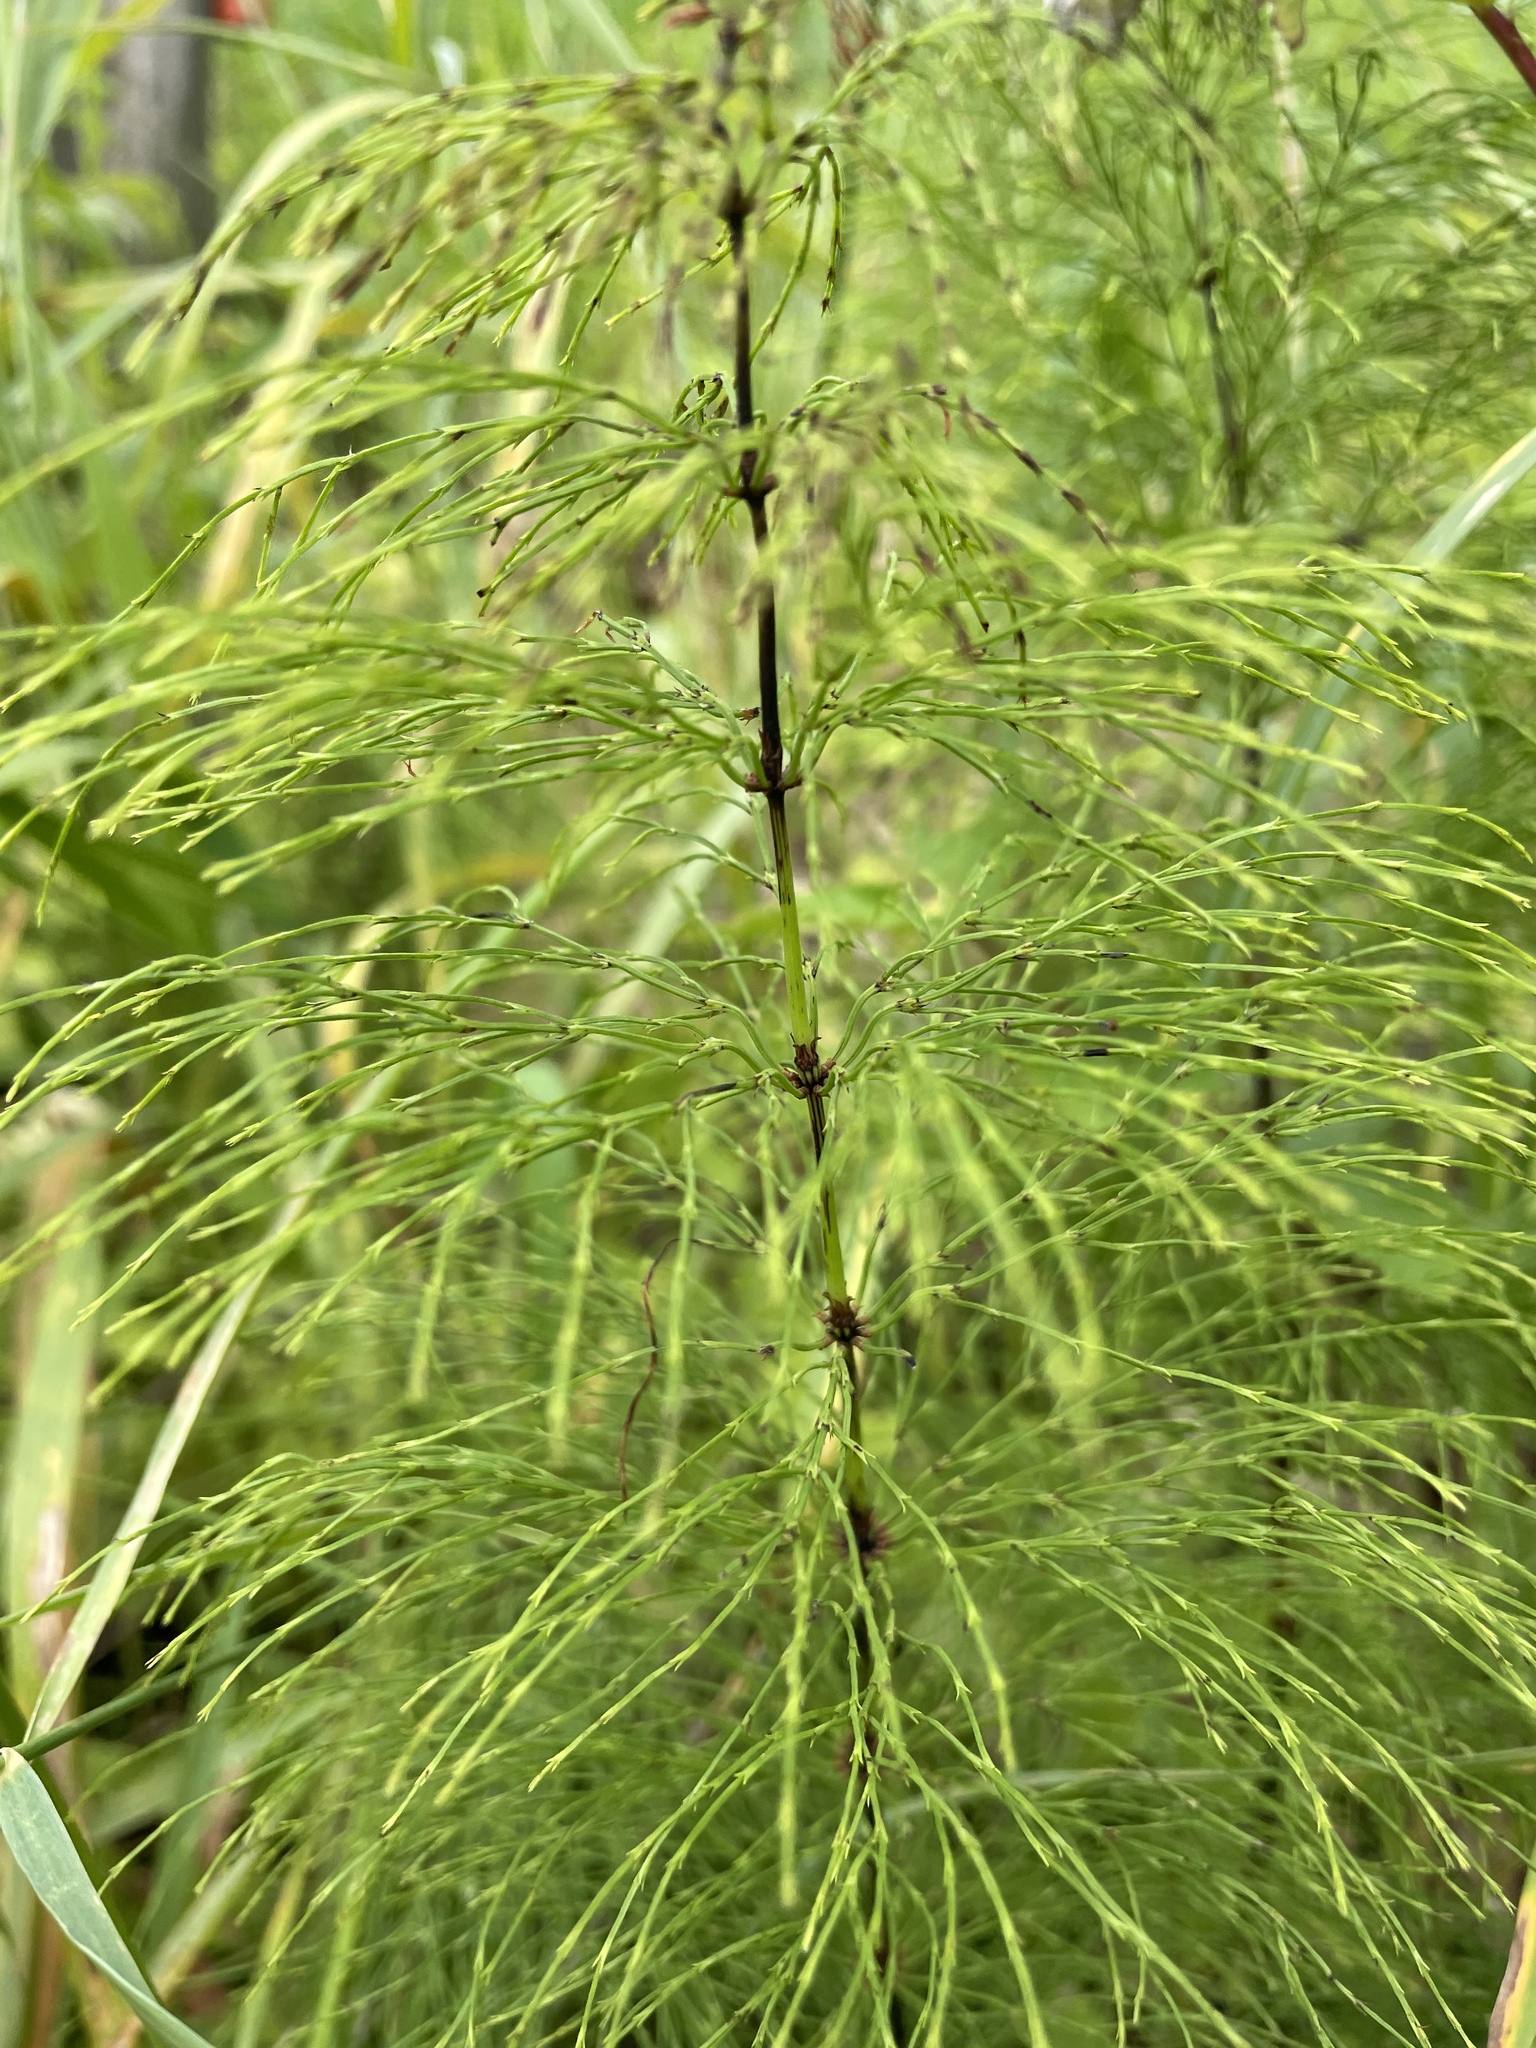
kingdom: Plantae
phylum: Tracheophyta
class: Polypodiopsida
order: Equisetales
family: Equisetaceae
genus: Equisetum
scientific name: Equisetum sylvaticum
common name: Wood horsetail
